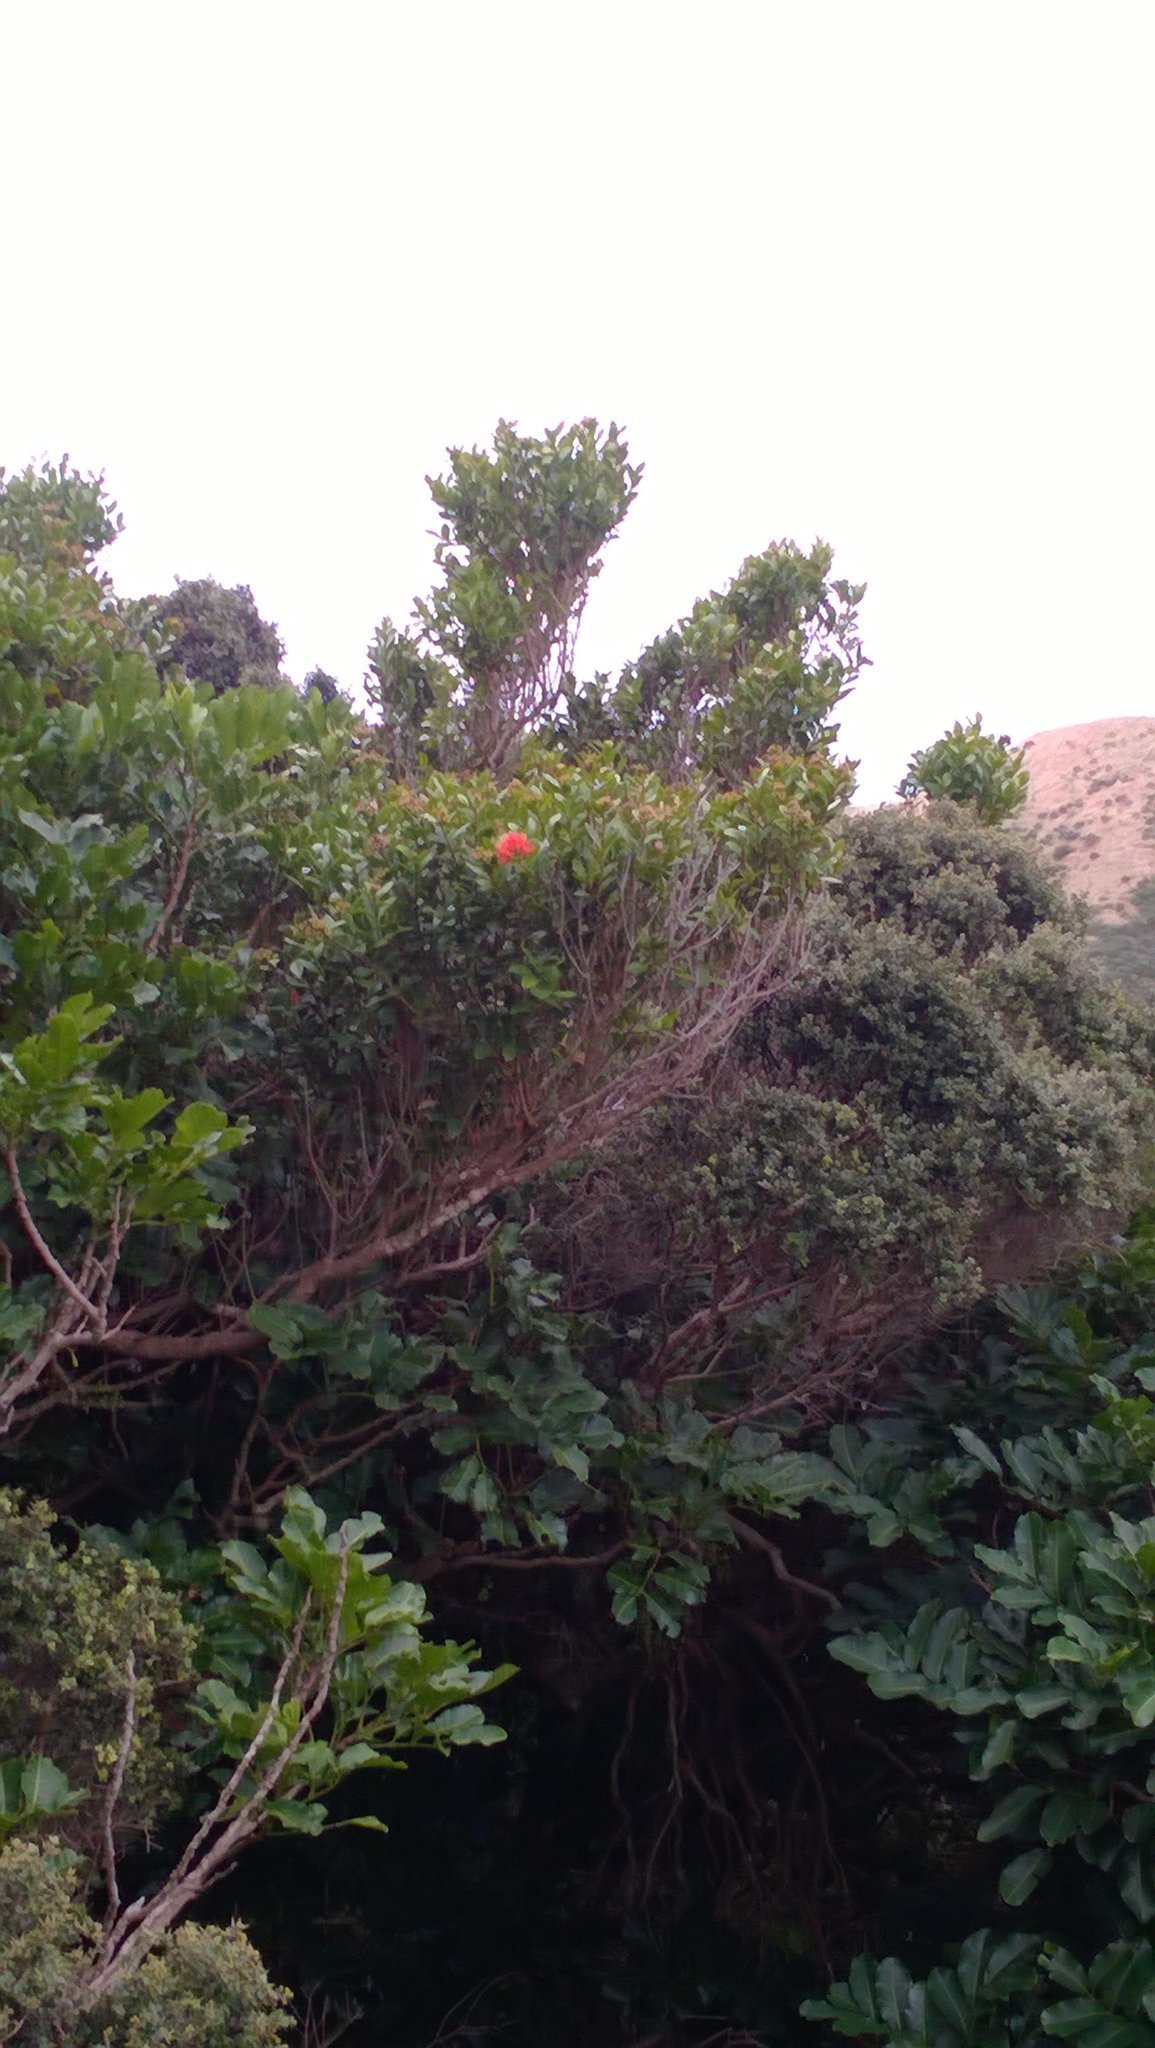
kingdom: Plantae
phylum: Tracheophyta
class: Magnoliopsida
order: Myrtales
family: Myrtaceae
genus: Metrosideros
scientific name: Metrosideros fulgens
